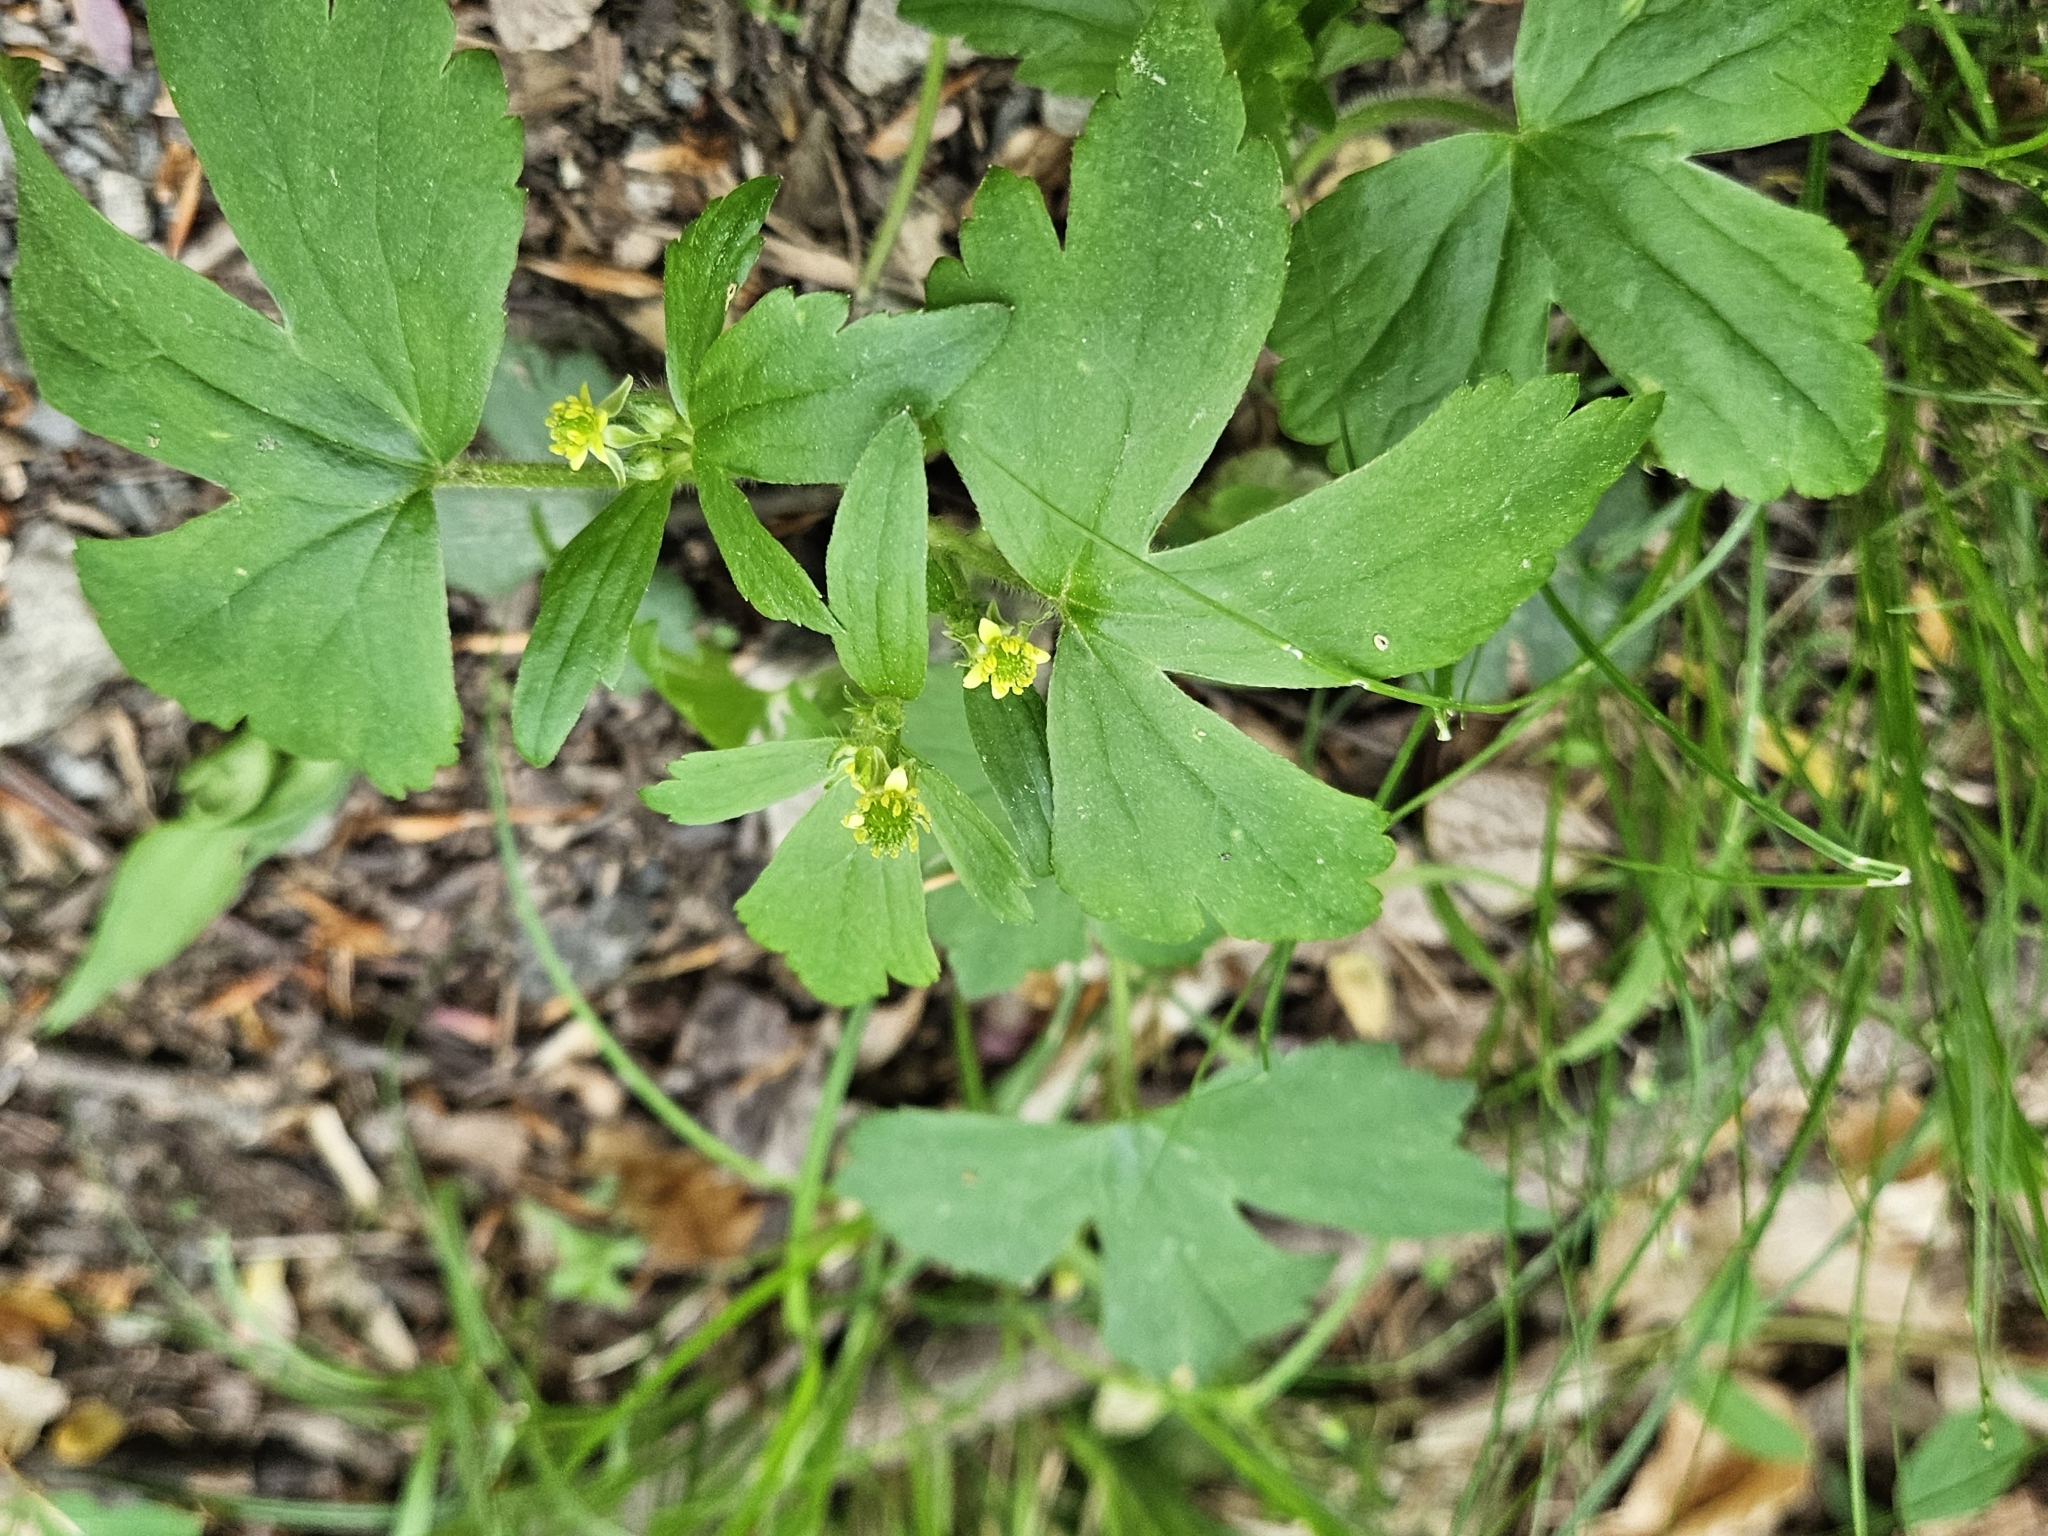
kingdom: Plantae
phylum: Tracheophyta
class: Magnoliopsida
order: Ranunculales
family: Ranunculaceae
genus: Ranunculus
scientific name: Ranunculus recurvatus
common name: Blisterwort
